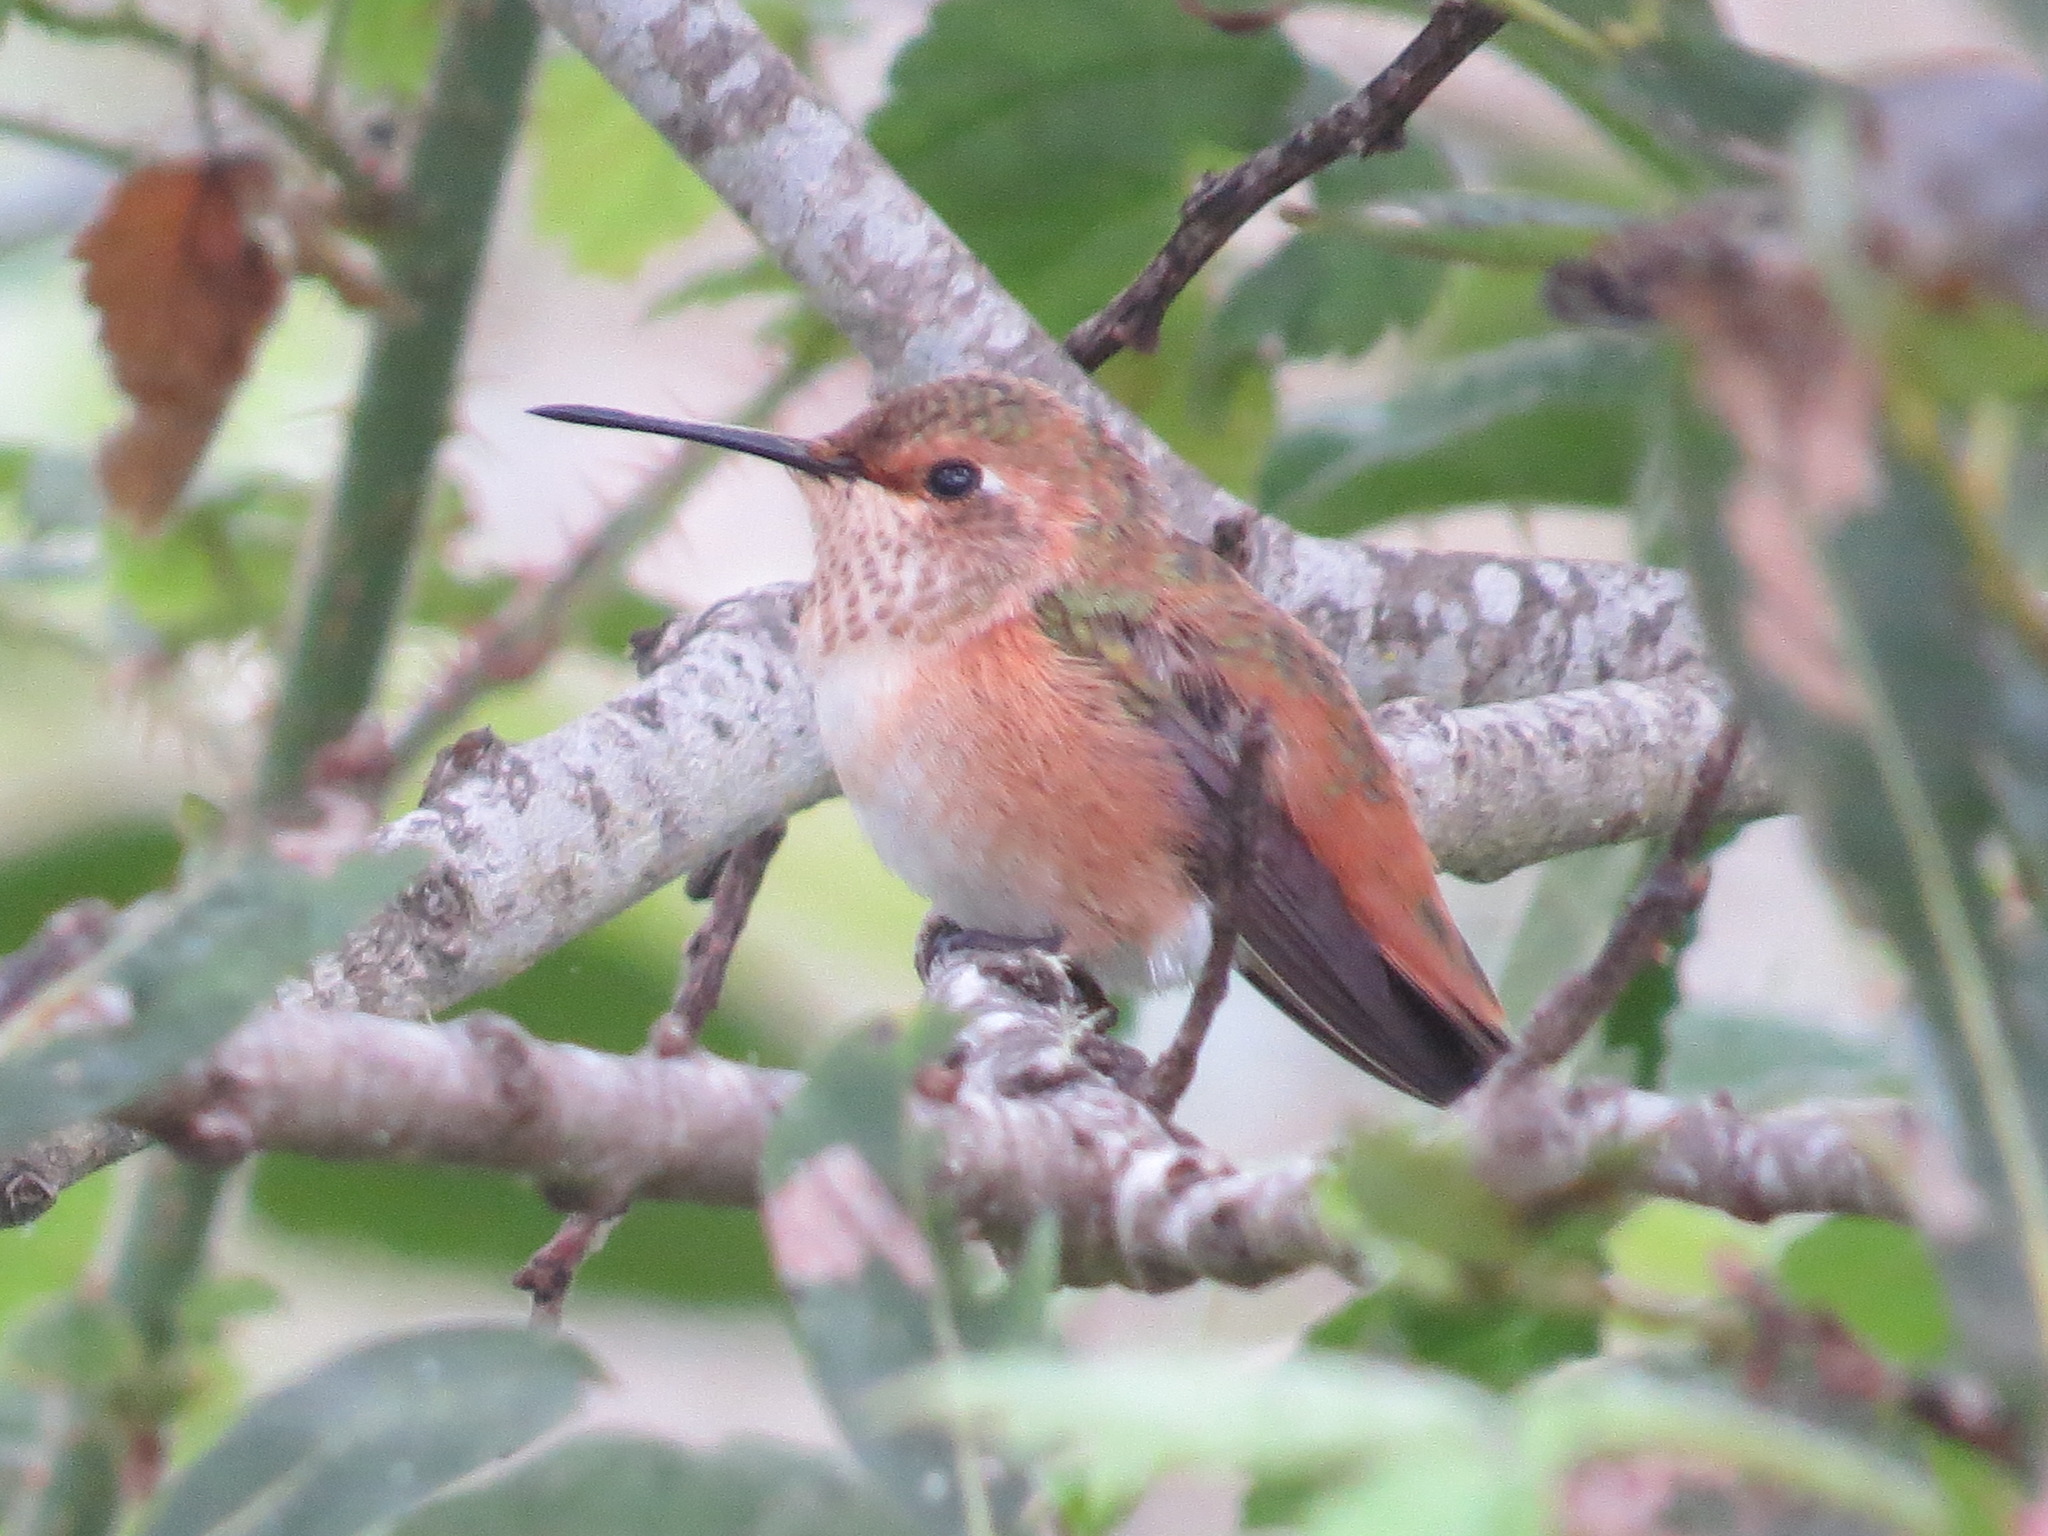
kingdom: Animalia
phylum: Chordata
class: Aves
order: Apodiformes
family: Trochilidae
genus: Selasphorus
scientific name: Selasphorus
